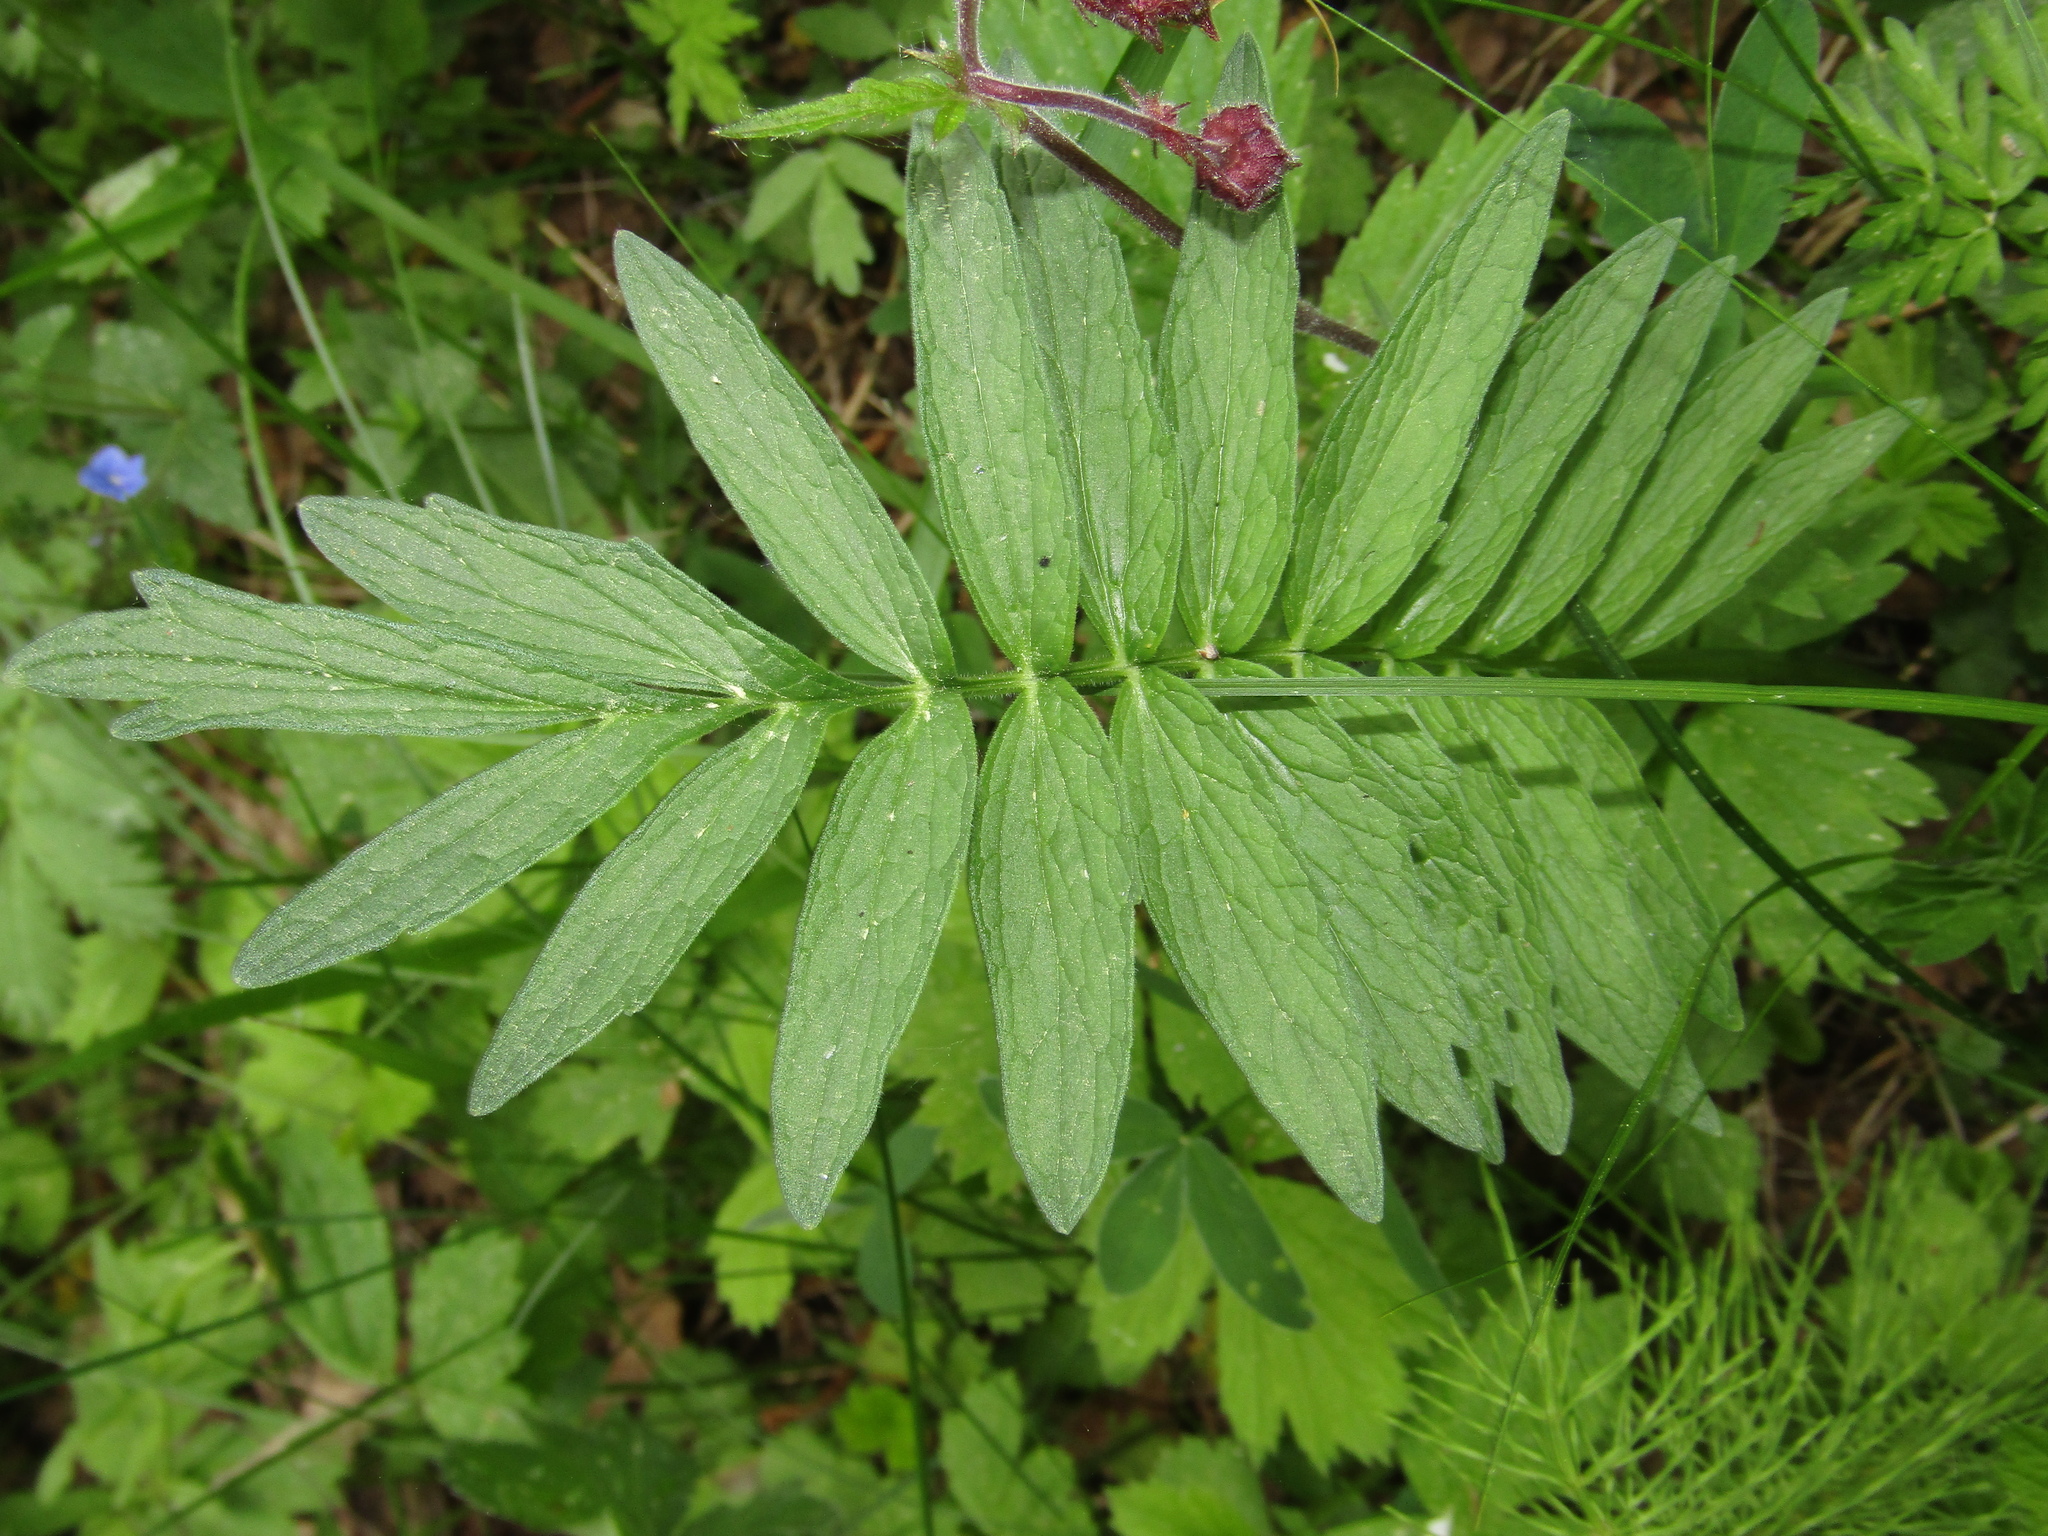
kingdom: Plantae
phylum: Tracheophyta
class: Magnoliopsida
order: Dipsacales
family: Caprifoliaceae
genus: Valeriana
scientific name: Valeriana officinalis
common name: Common valerian
